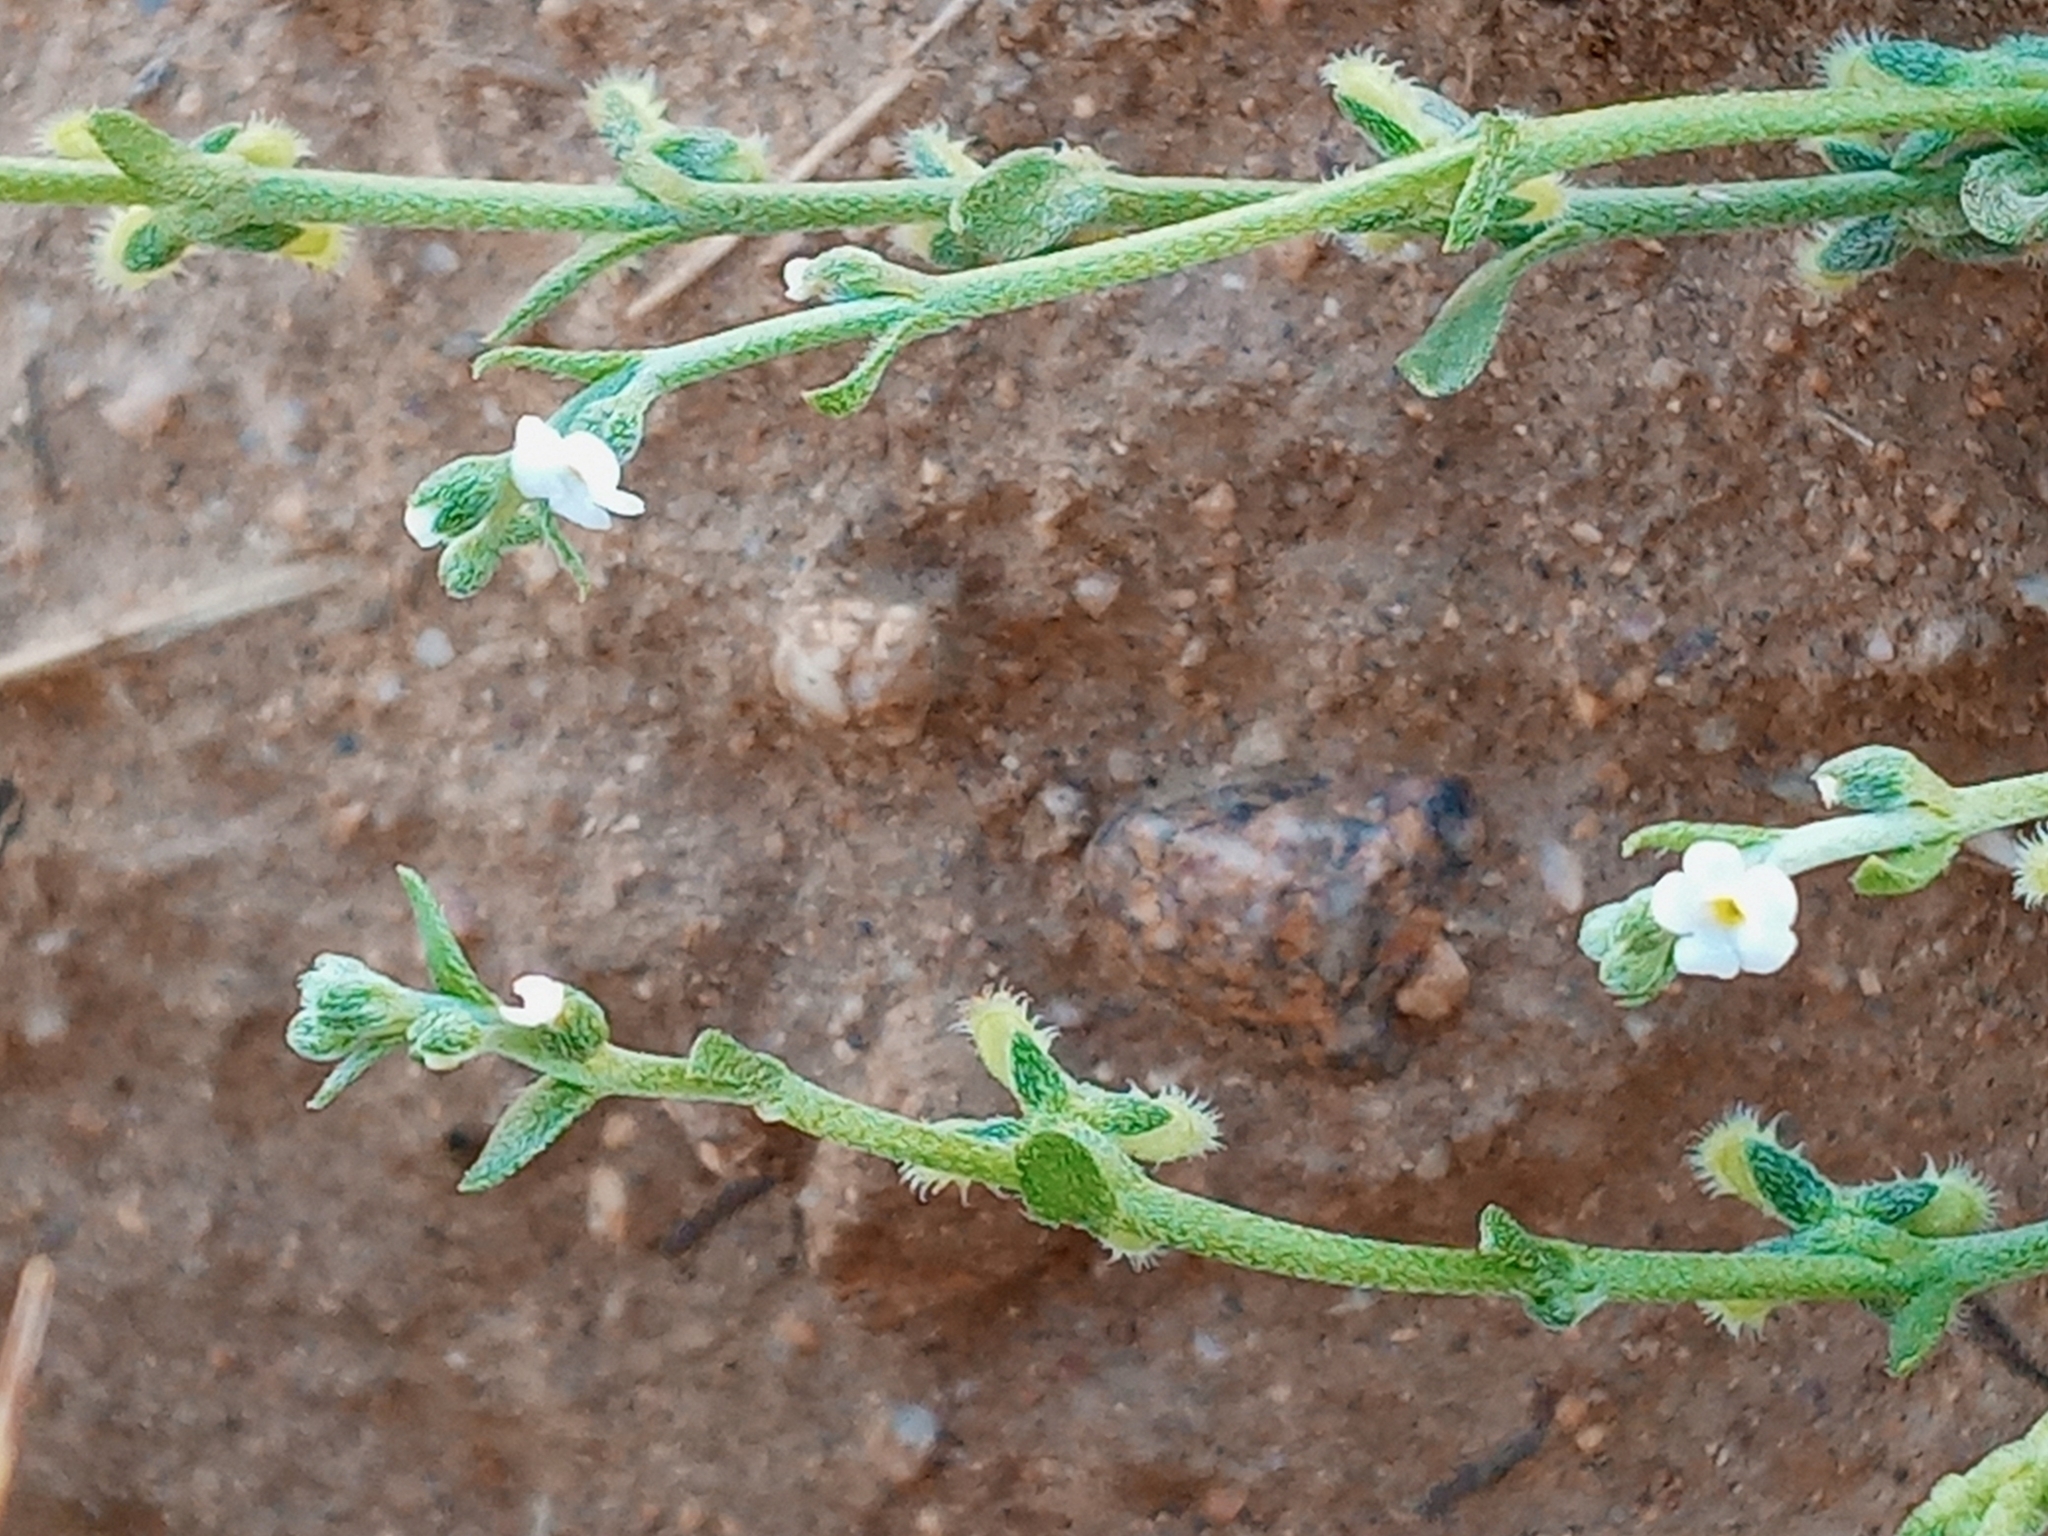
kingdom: Plantae
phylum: Tracheophyta
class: Magnoliopsida
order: Boraginales
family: Boraginaceae
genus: Pectocarya
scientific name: Pectocarya linearis
